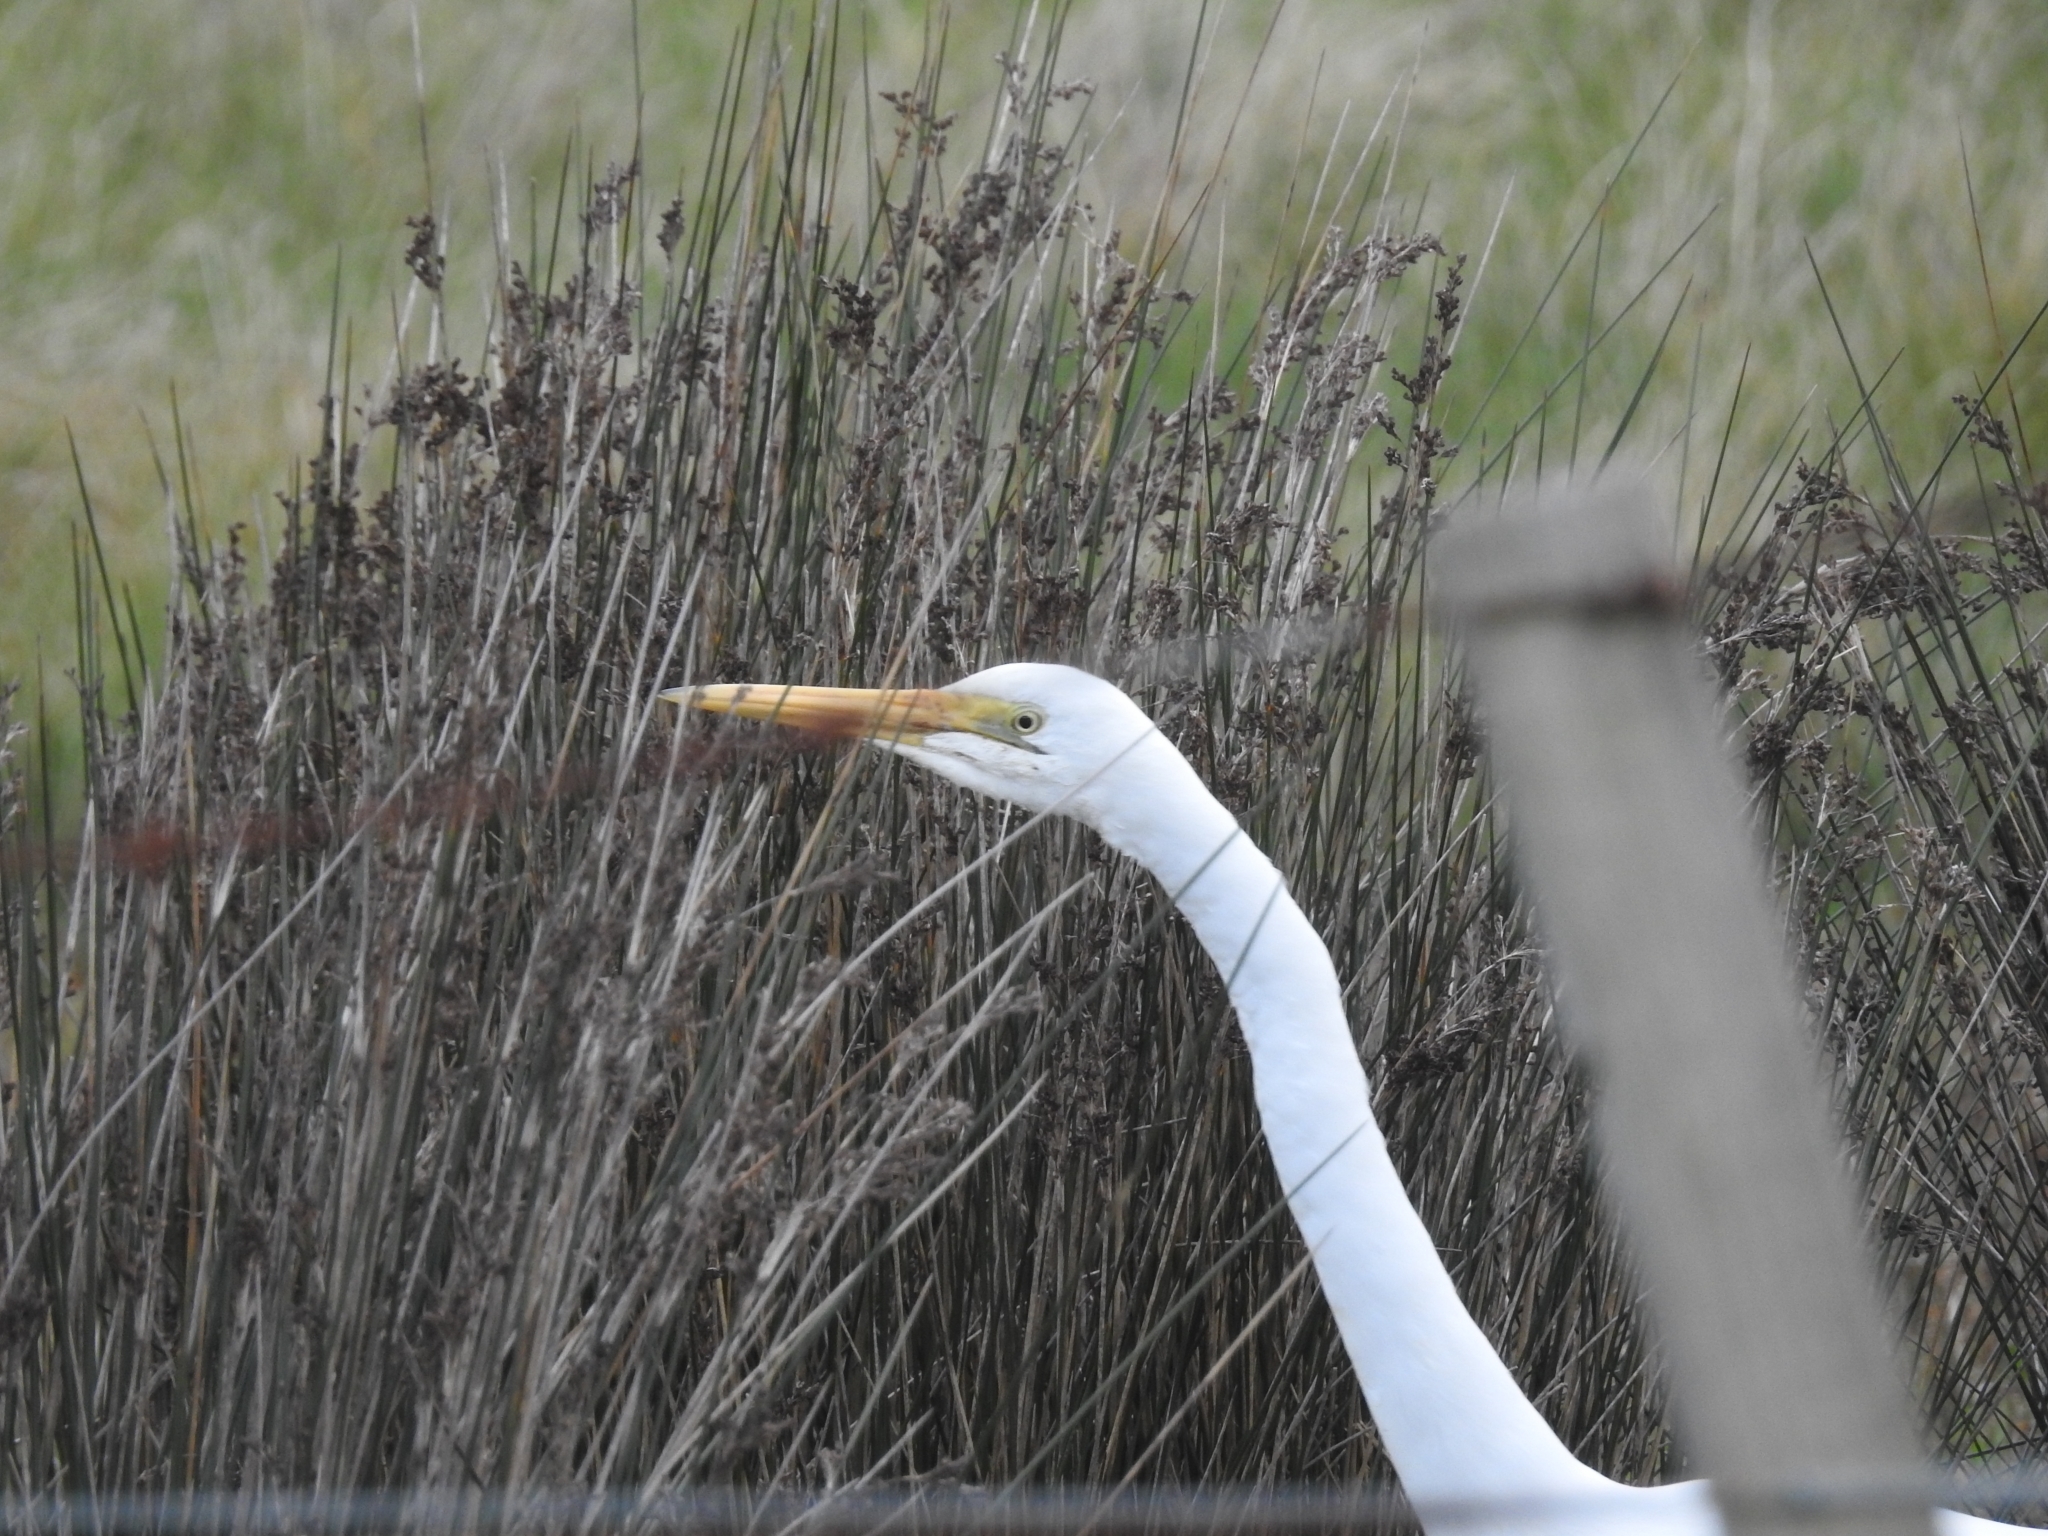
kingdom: Animalia
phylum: Chordata
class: Aves
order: Pelecaniformes
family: Ardeidae
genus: Ardea
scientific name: Ardea modesta
